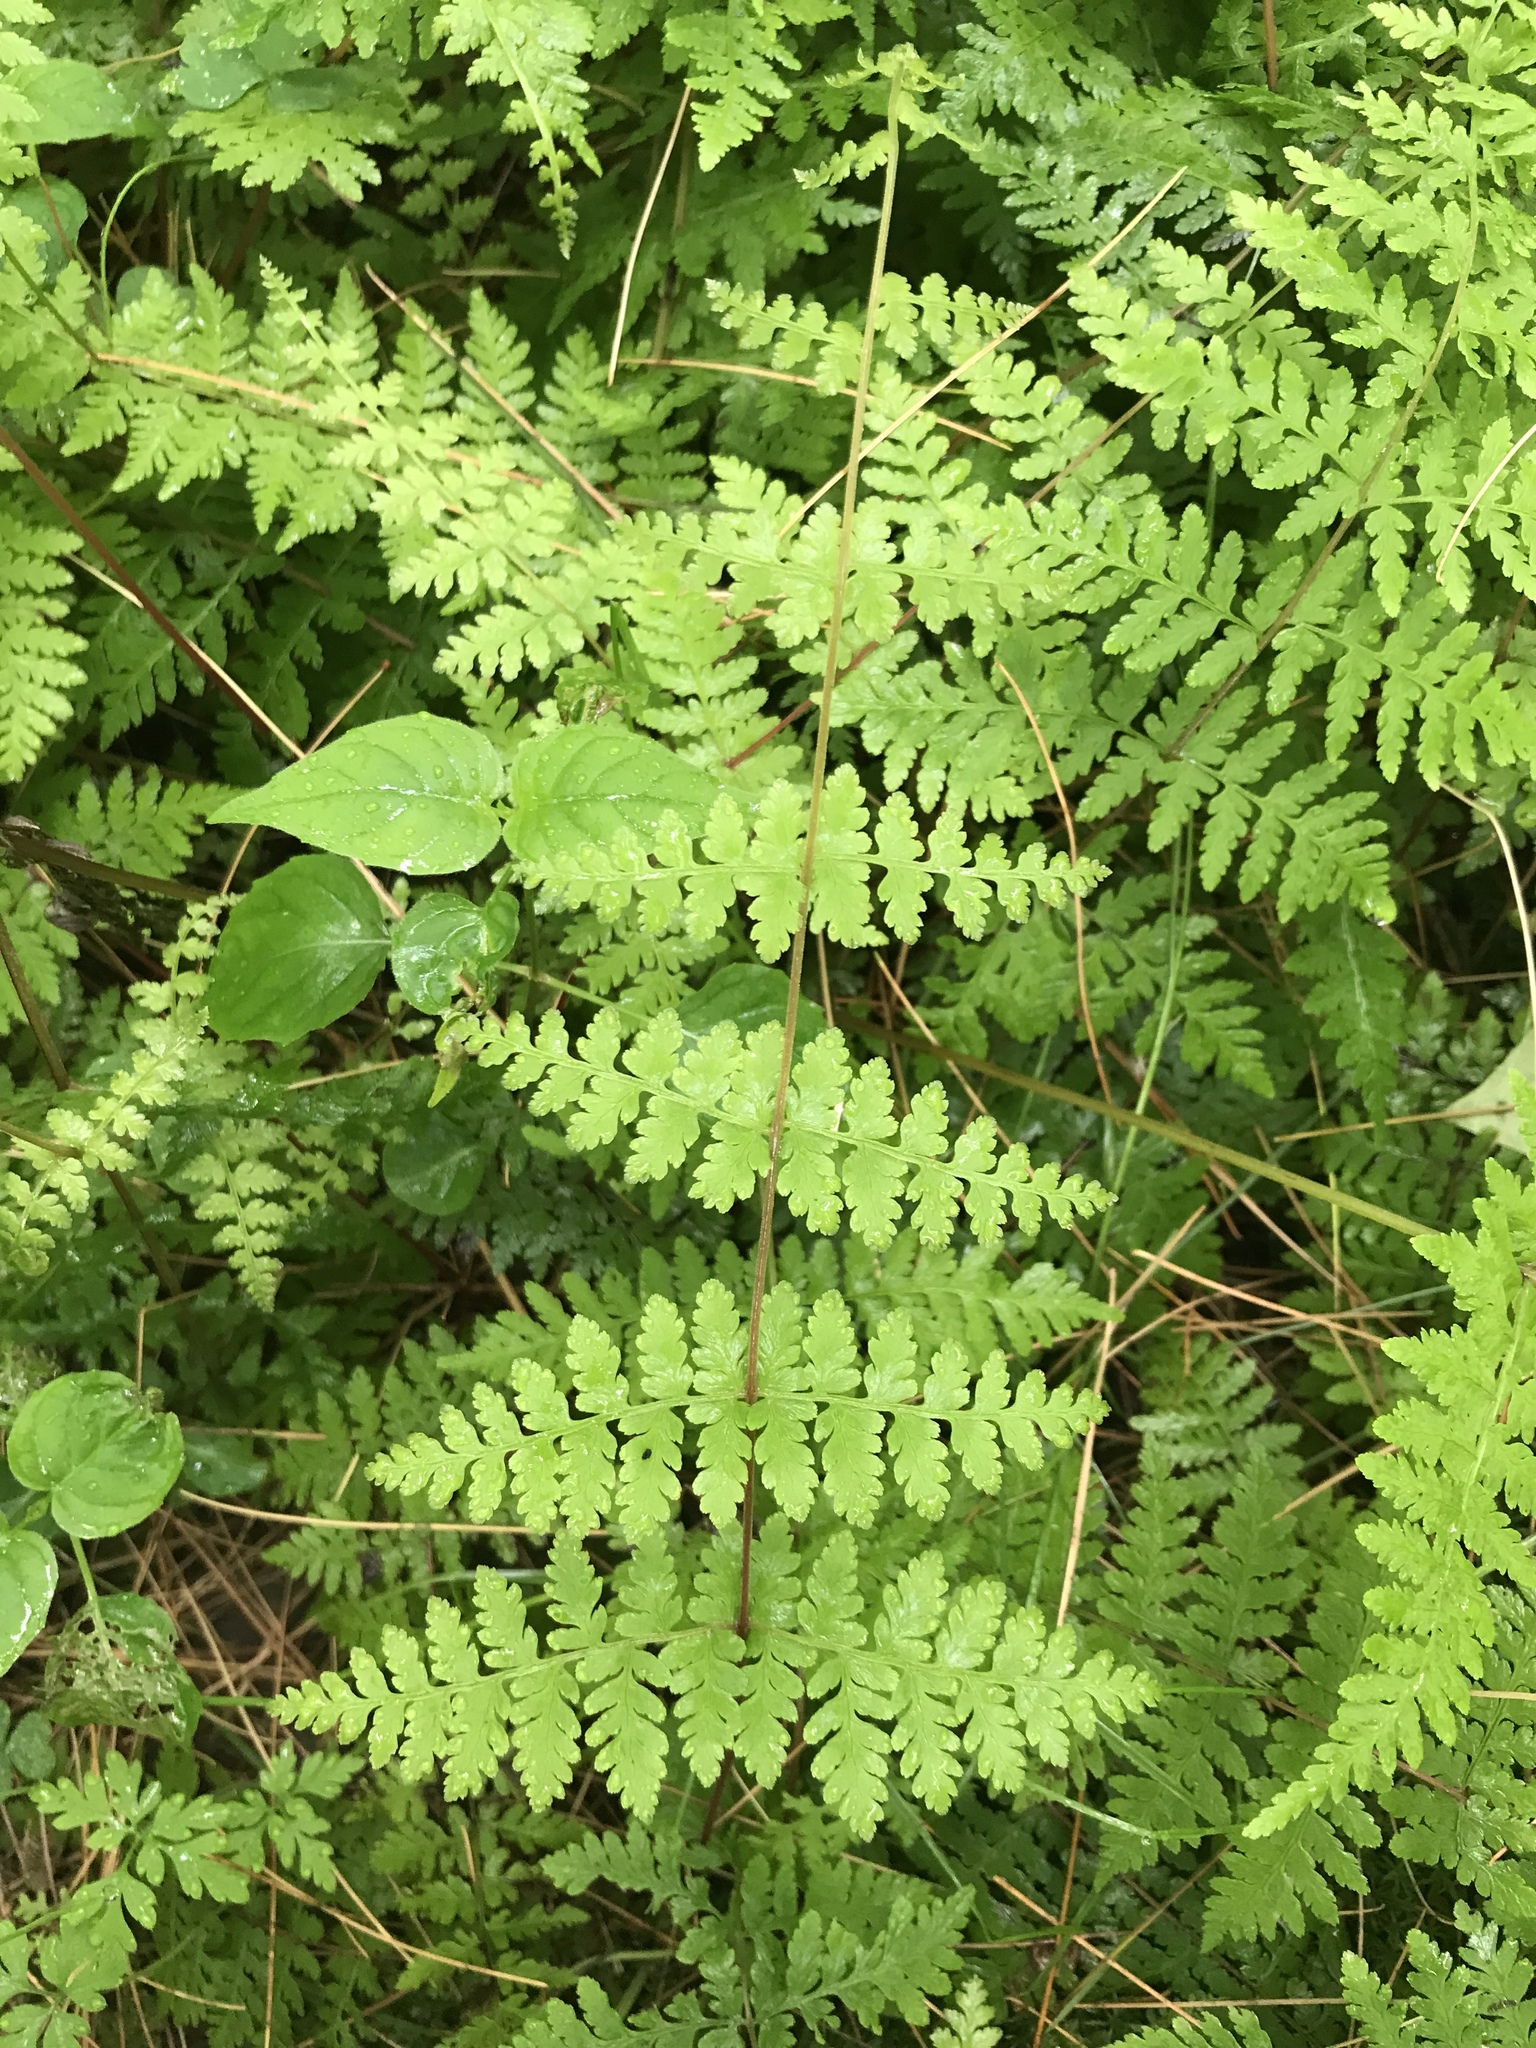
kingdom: Plantae
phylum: Tracheophyta
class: Polypodiopsida
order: Polypodiales
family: Cystopteridaceae
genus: Cystopteris
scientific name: Cystopteris bulbifera
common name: Bulblet bladder fern
